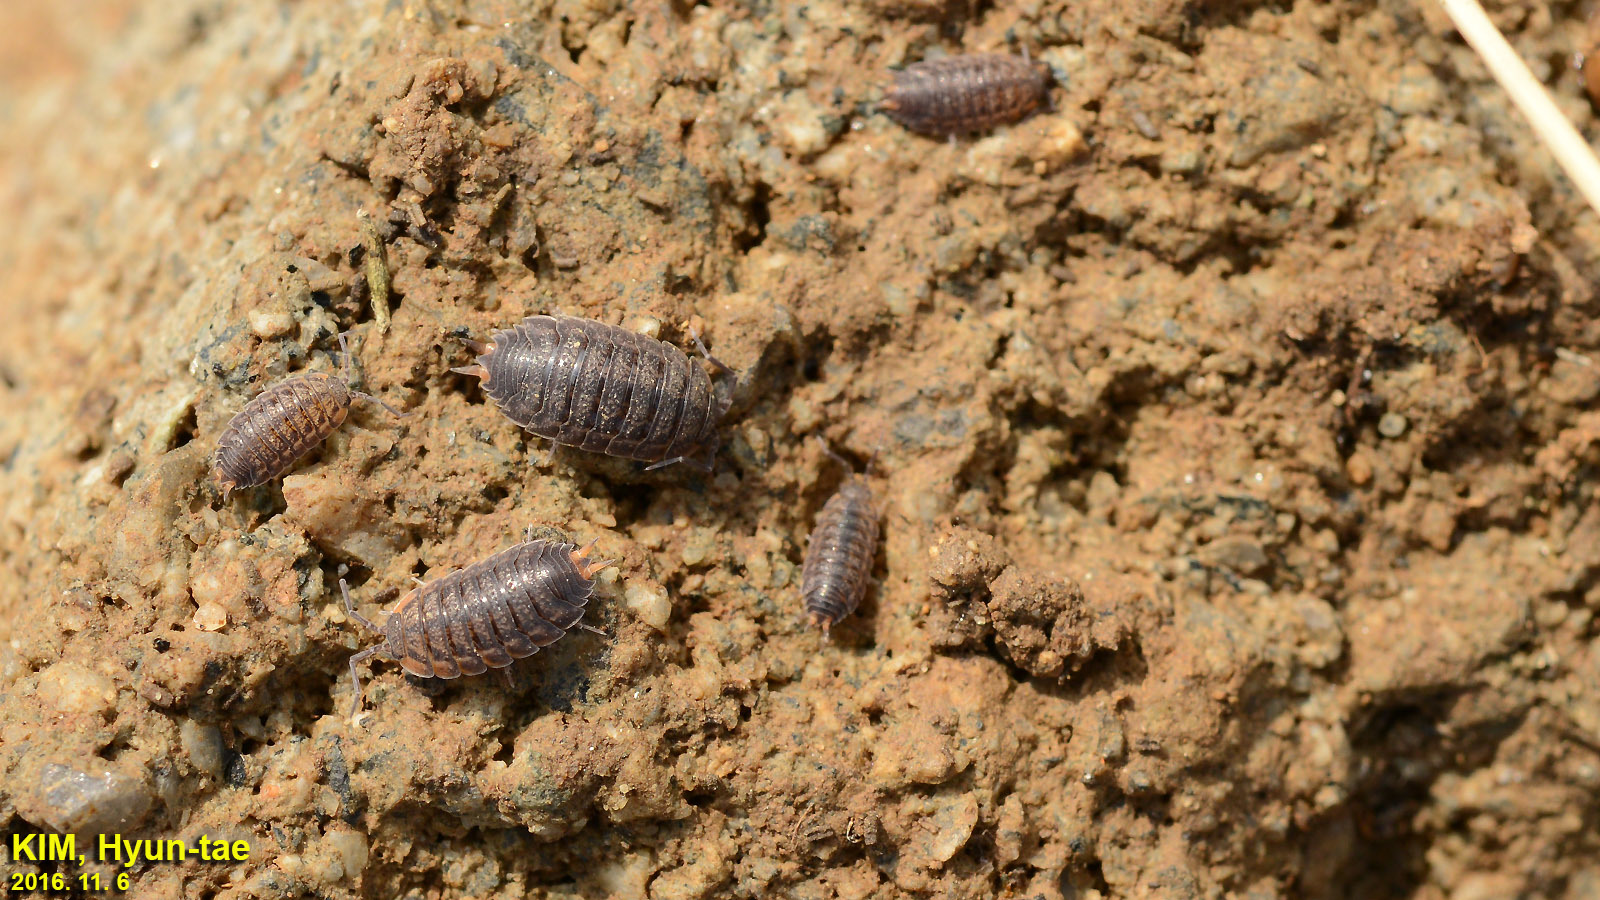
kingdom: Animalia
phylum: Arthropoda
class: Malacostraca
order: Isopoda
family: Agnaridae
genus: Koreoniscus
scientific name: Koreoniscus racovitzai
